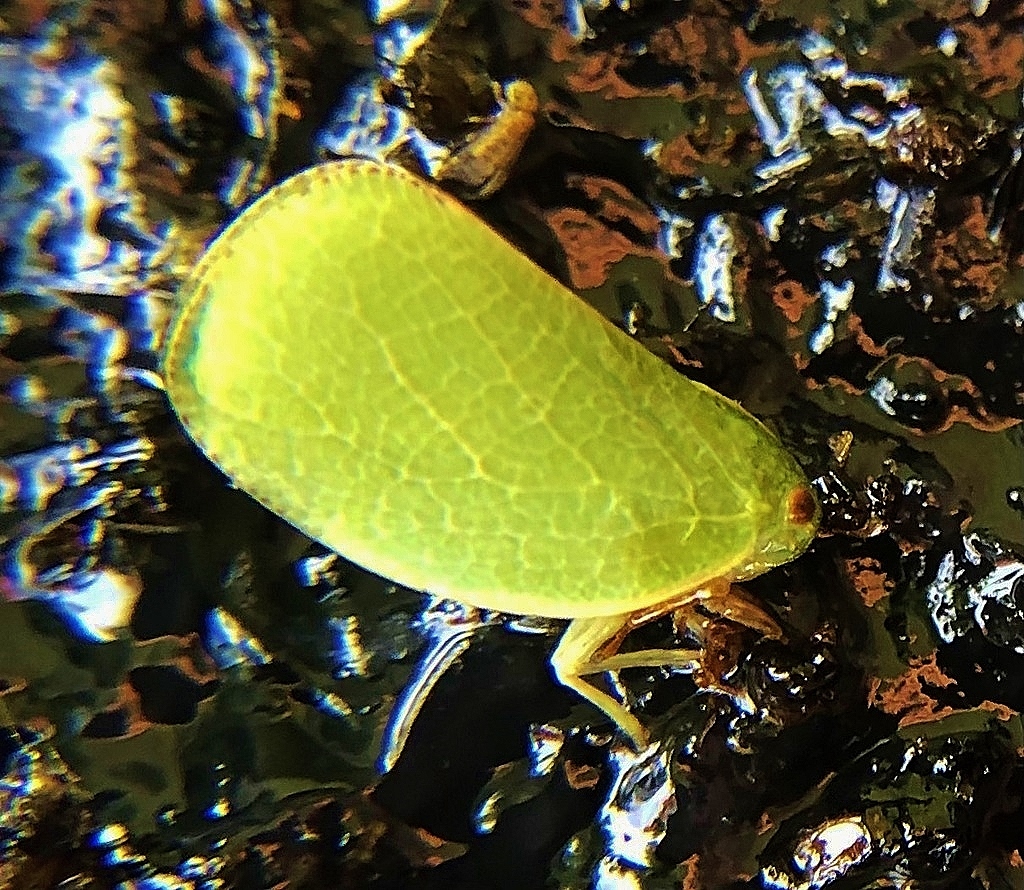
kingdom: Animalia
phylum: Arthropoda
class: Insecta
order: Hemiptera
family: Acanaloniidae
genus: Acanalonia
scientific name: Acanalonia servillei
